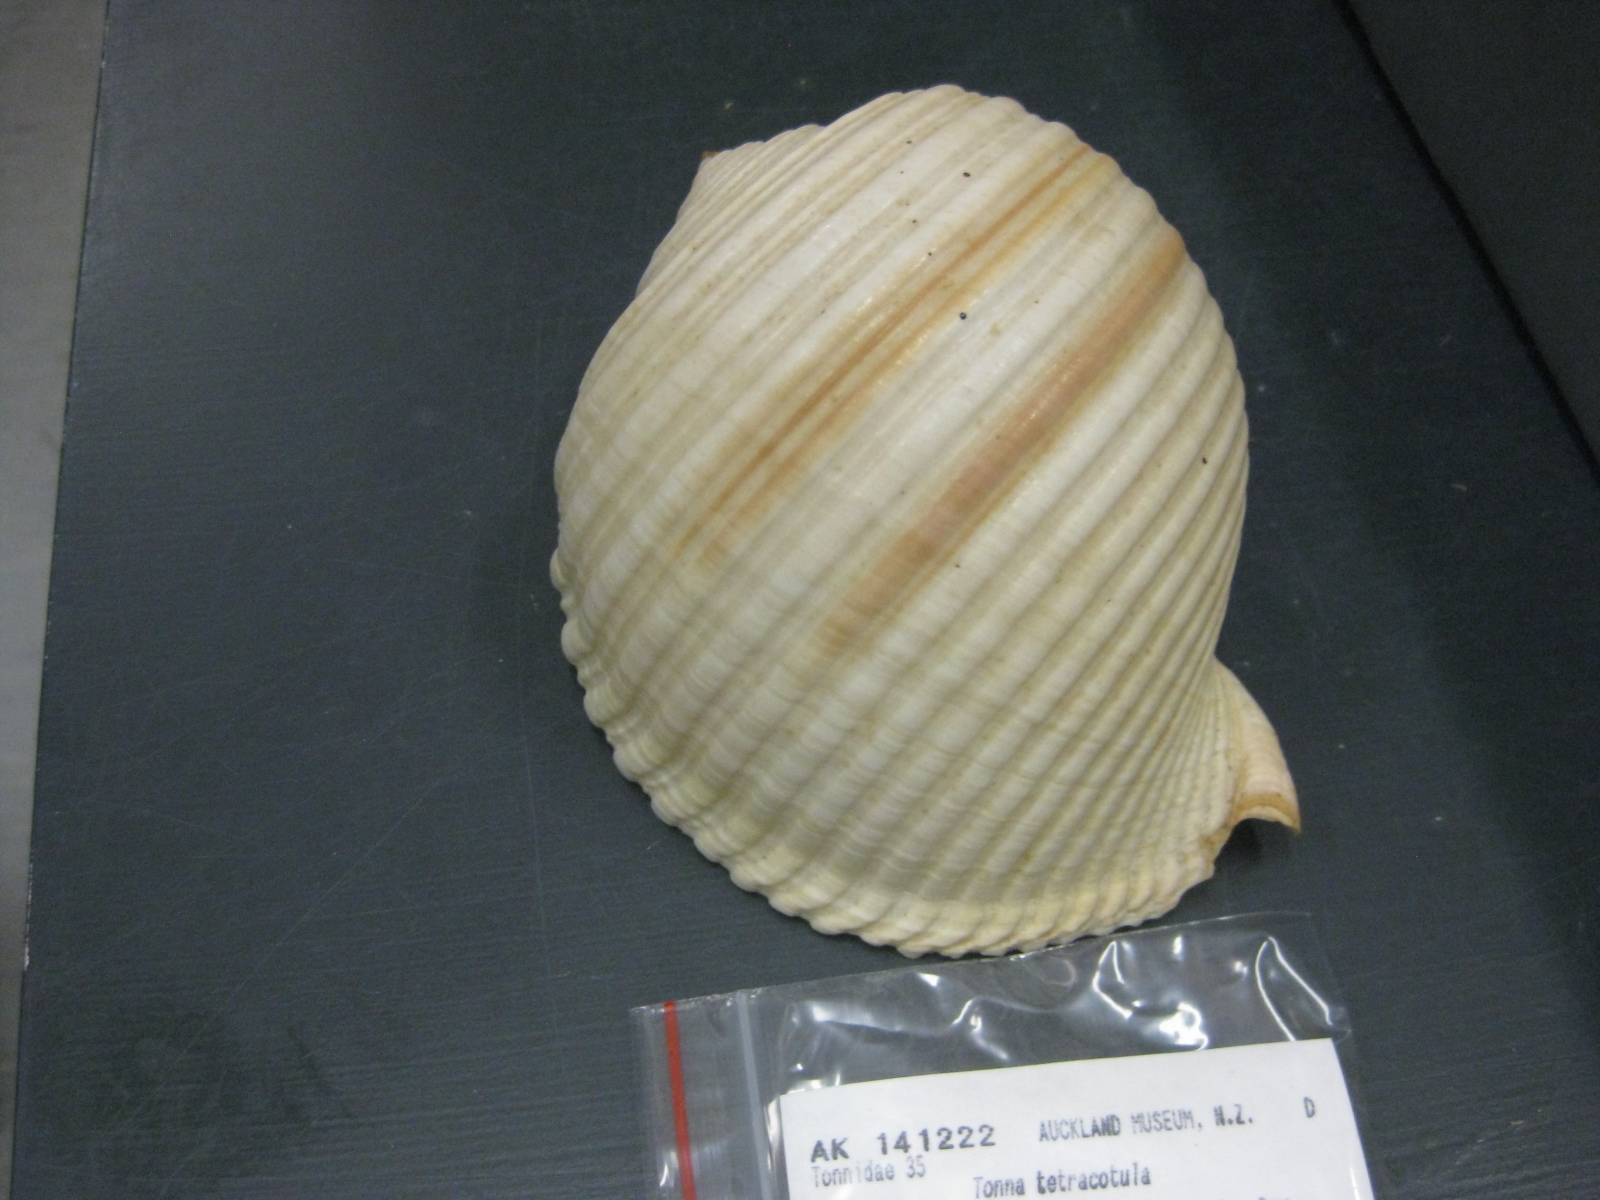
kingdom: Animalia
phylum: Mollusca
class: Gastropoda
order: Littorinimorpha
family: Tonnidae
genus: Tonna
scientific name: Tonna tetracotula
